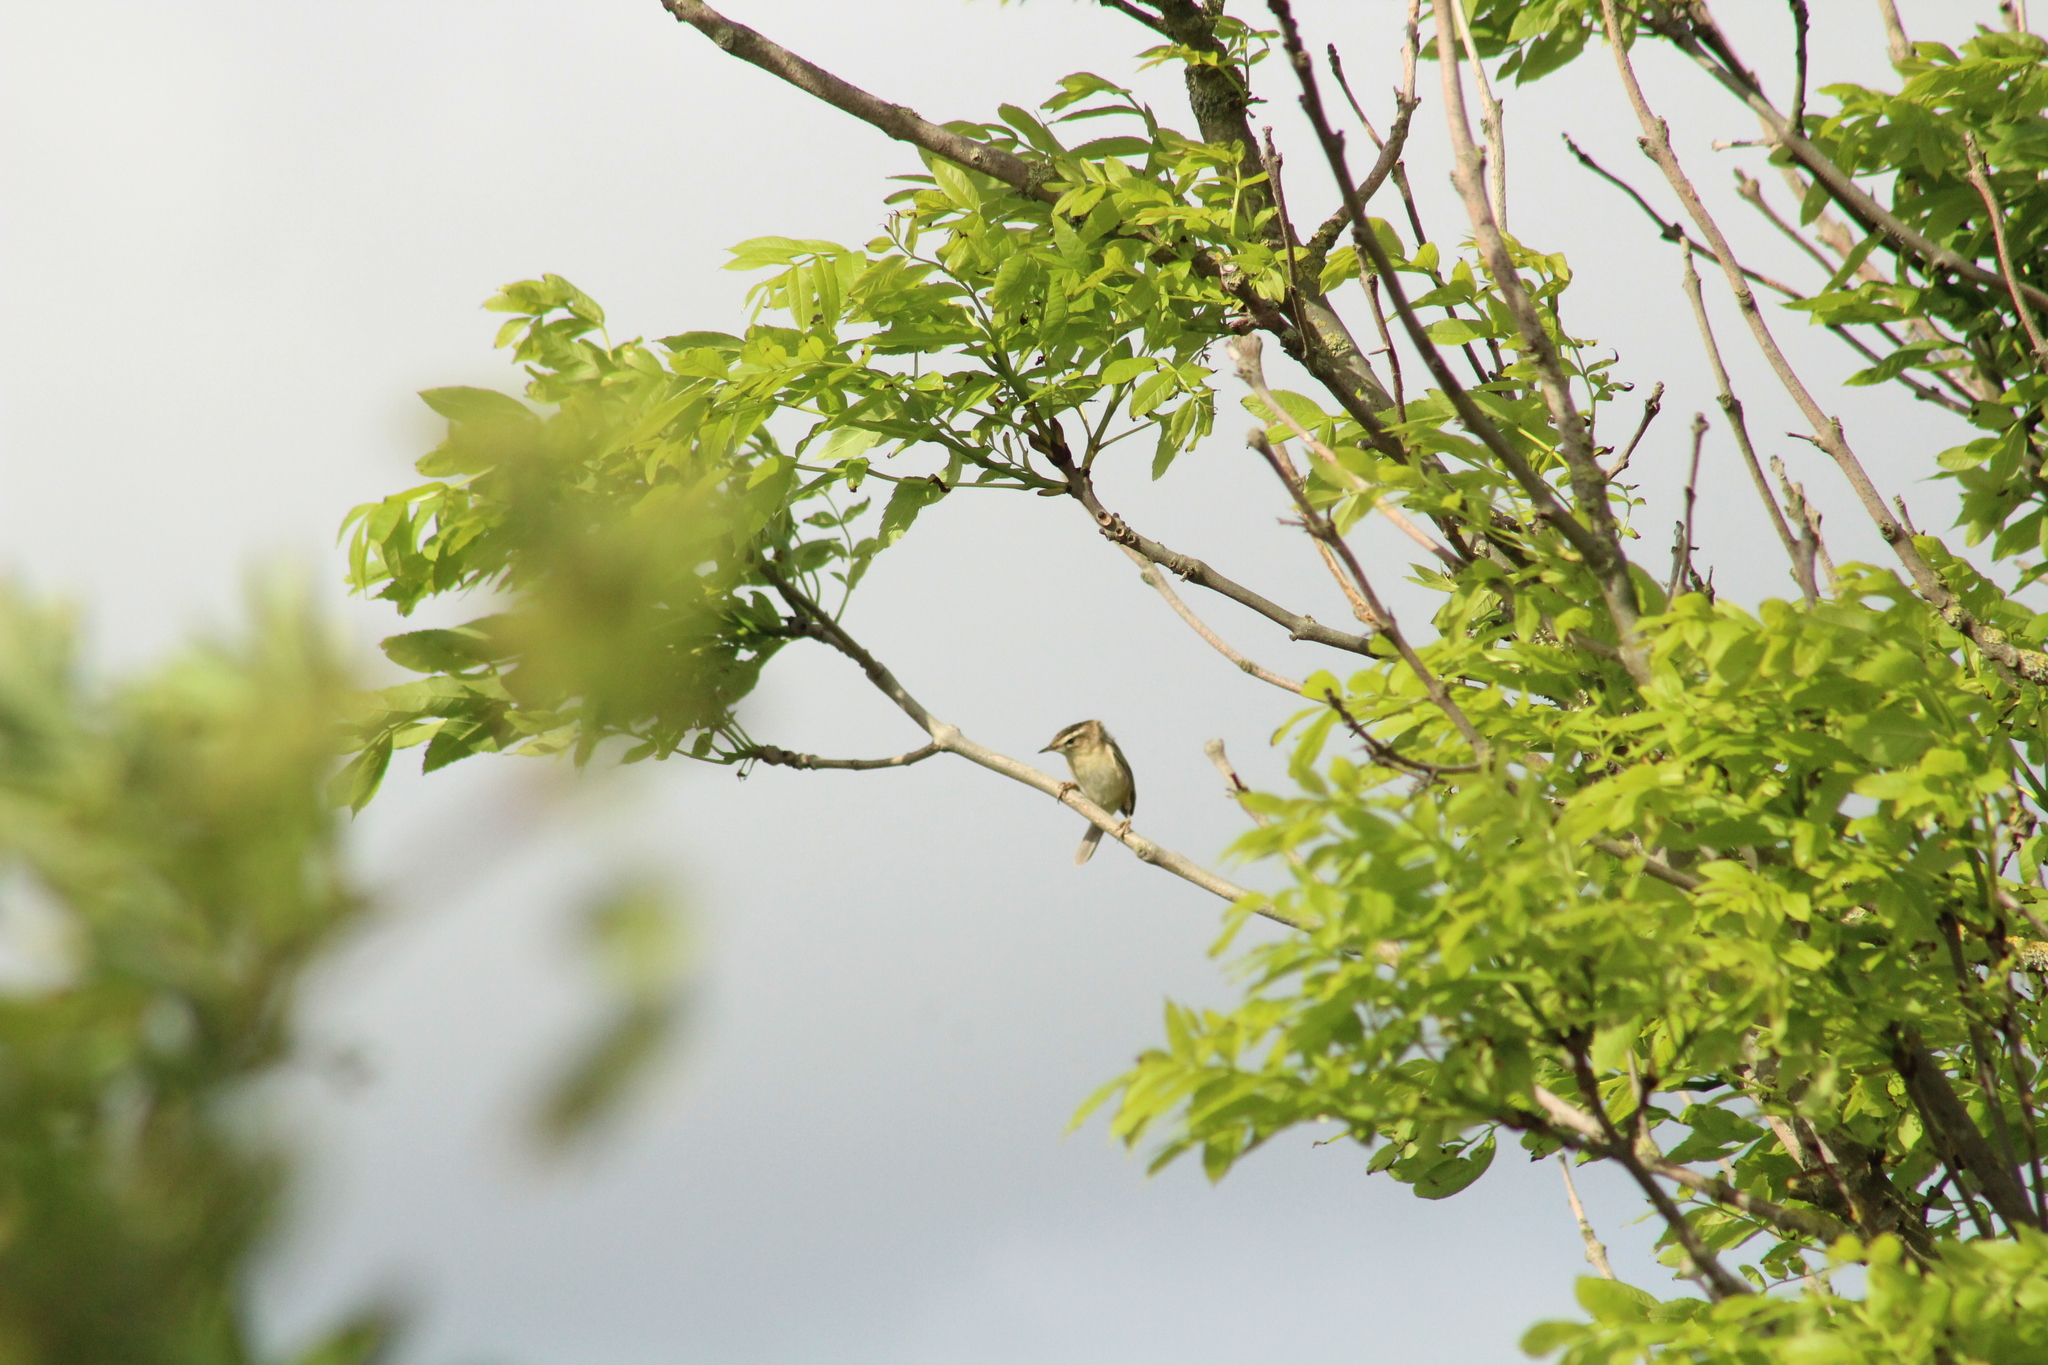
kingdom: Animalia
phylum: Chordata
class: Aves
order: Passeriformes
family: Acrocephalidae
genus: Acrocephalus
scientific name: Acrocephalus schoenobaenus
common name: Sedge warbler
